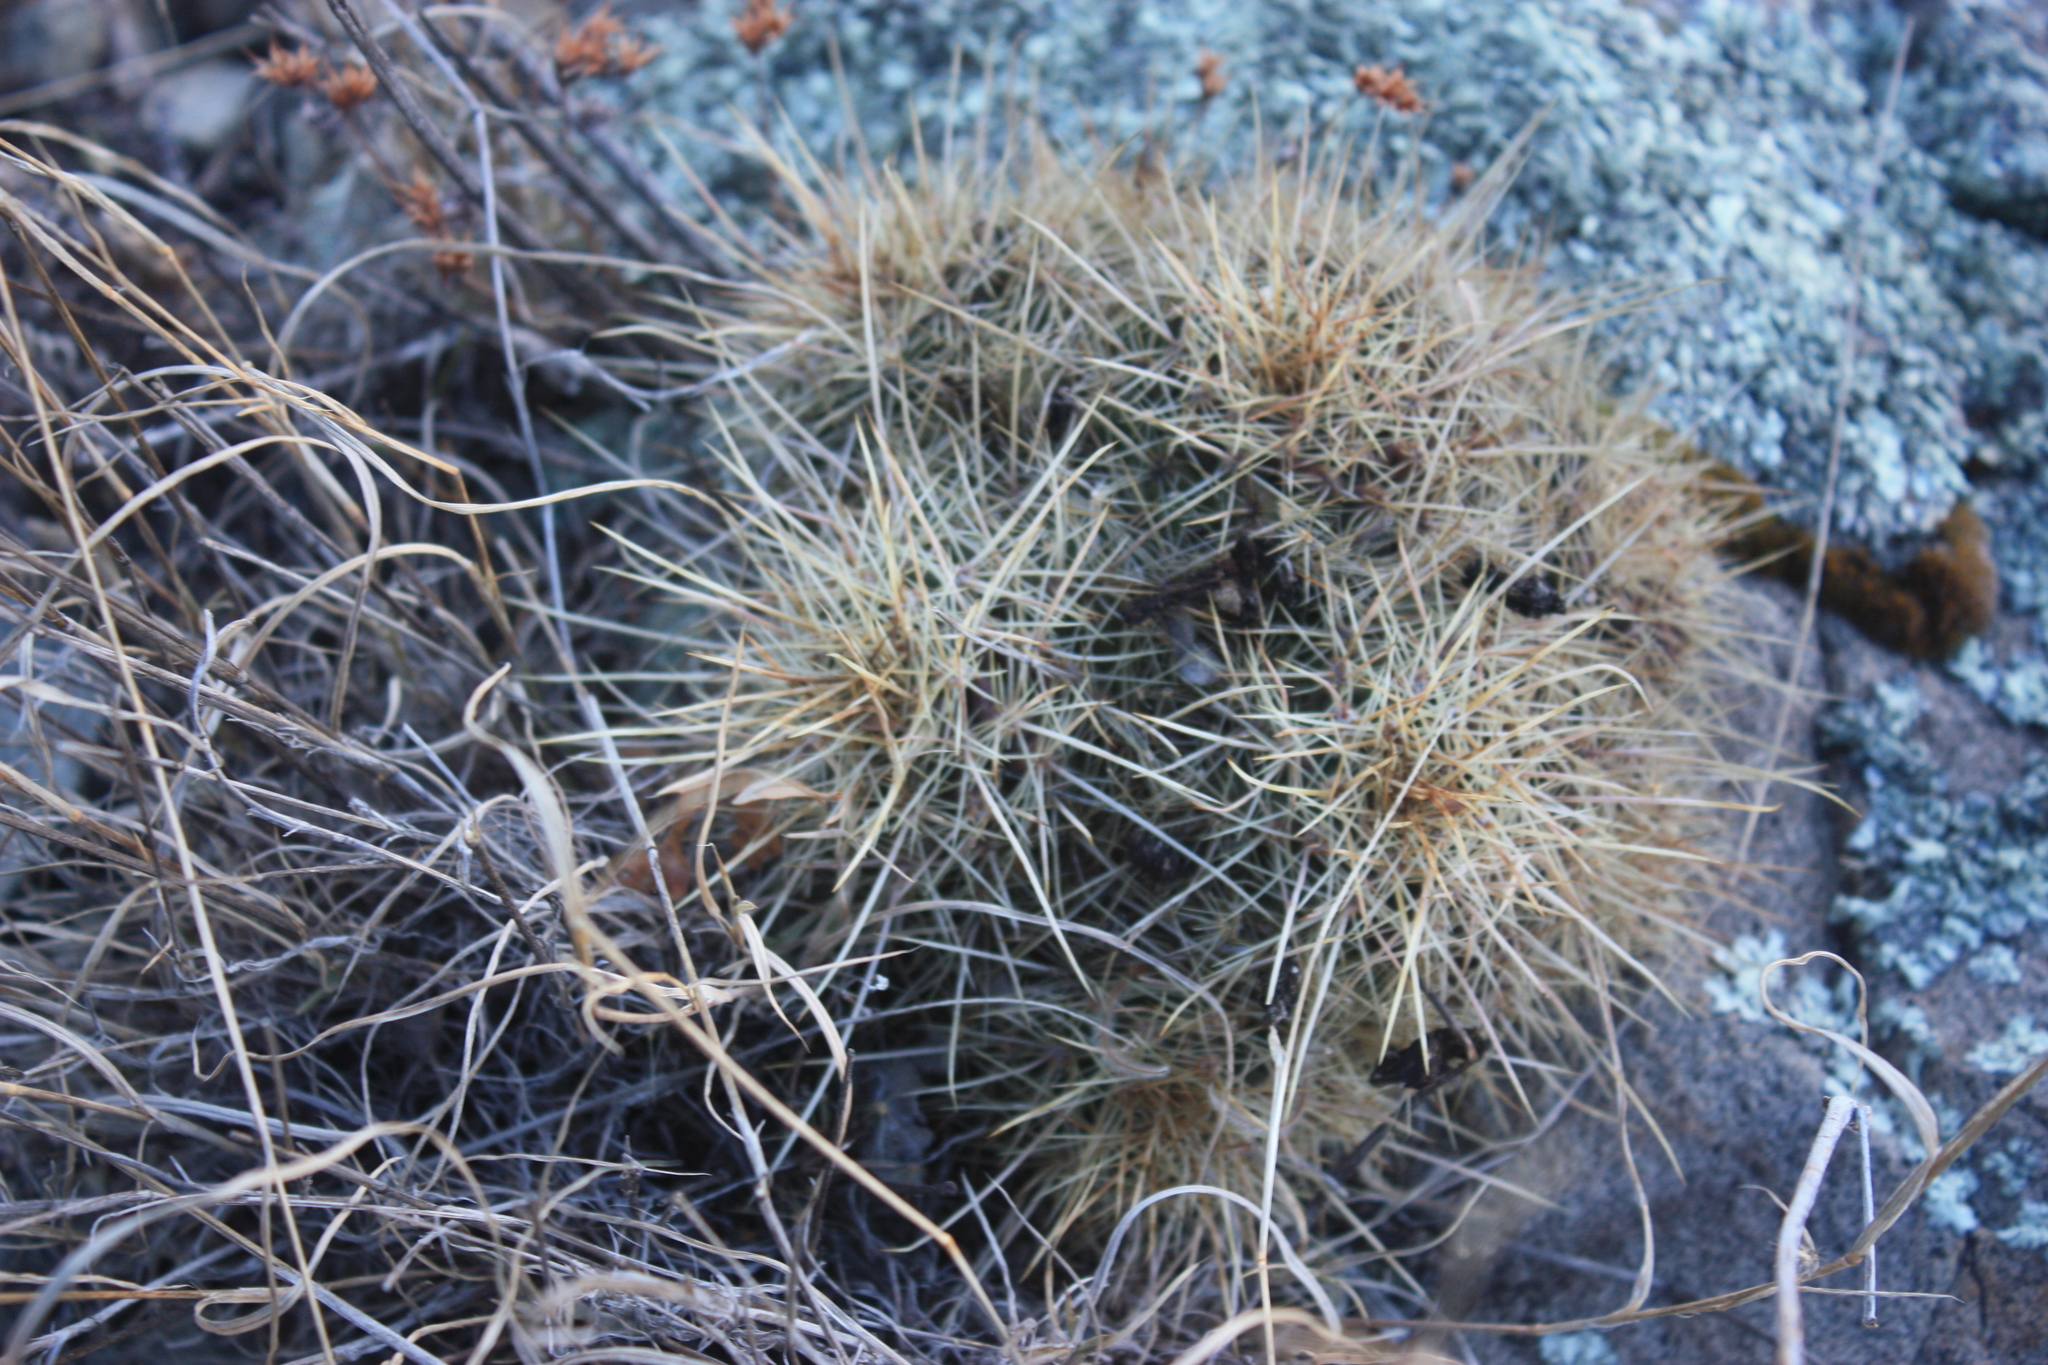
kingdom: Plantae
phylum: Tracheophyta
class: Magnoliopsida
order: Caryophyllales
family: Cactaceae
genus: Echinocereus
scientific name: Echinocereus coccineus
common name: Scarlet hedgehog cactus
